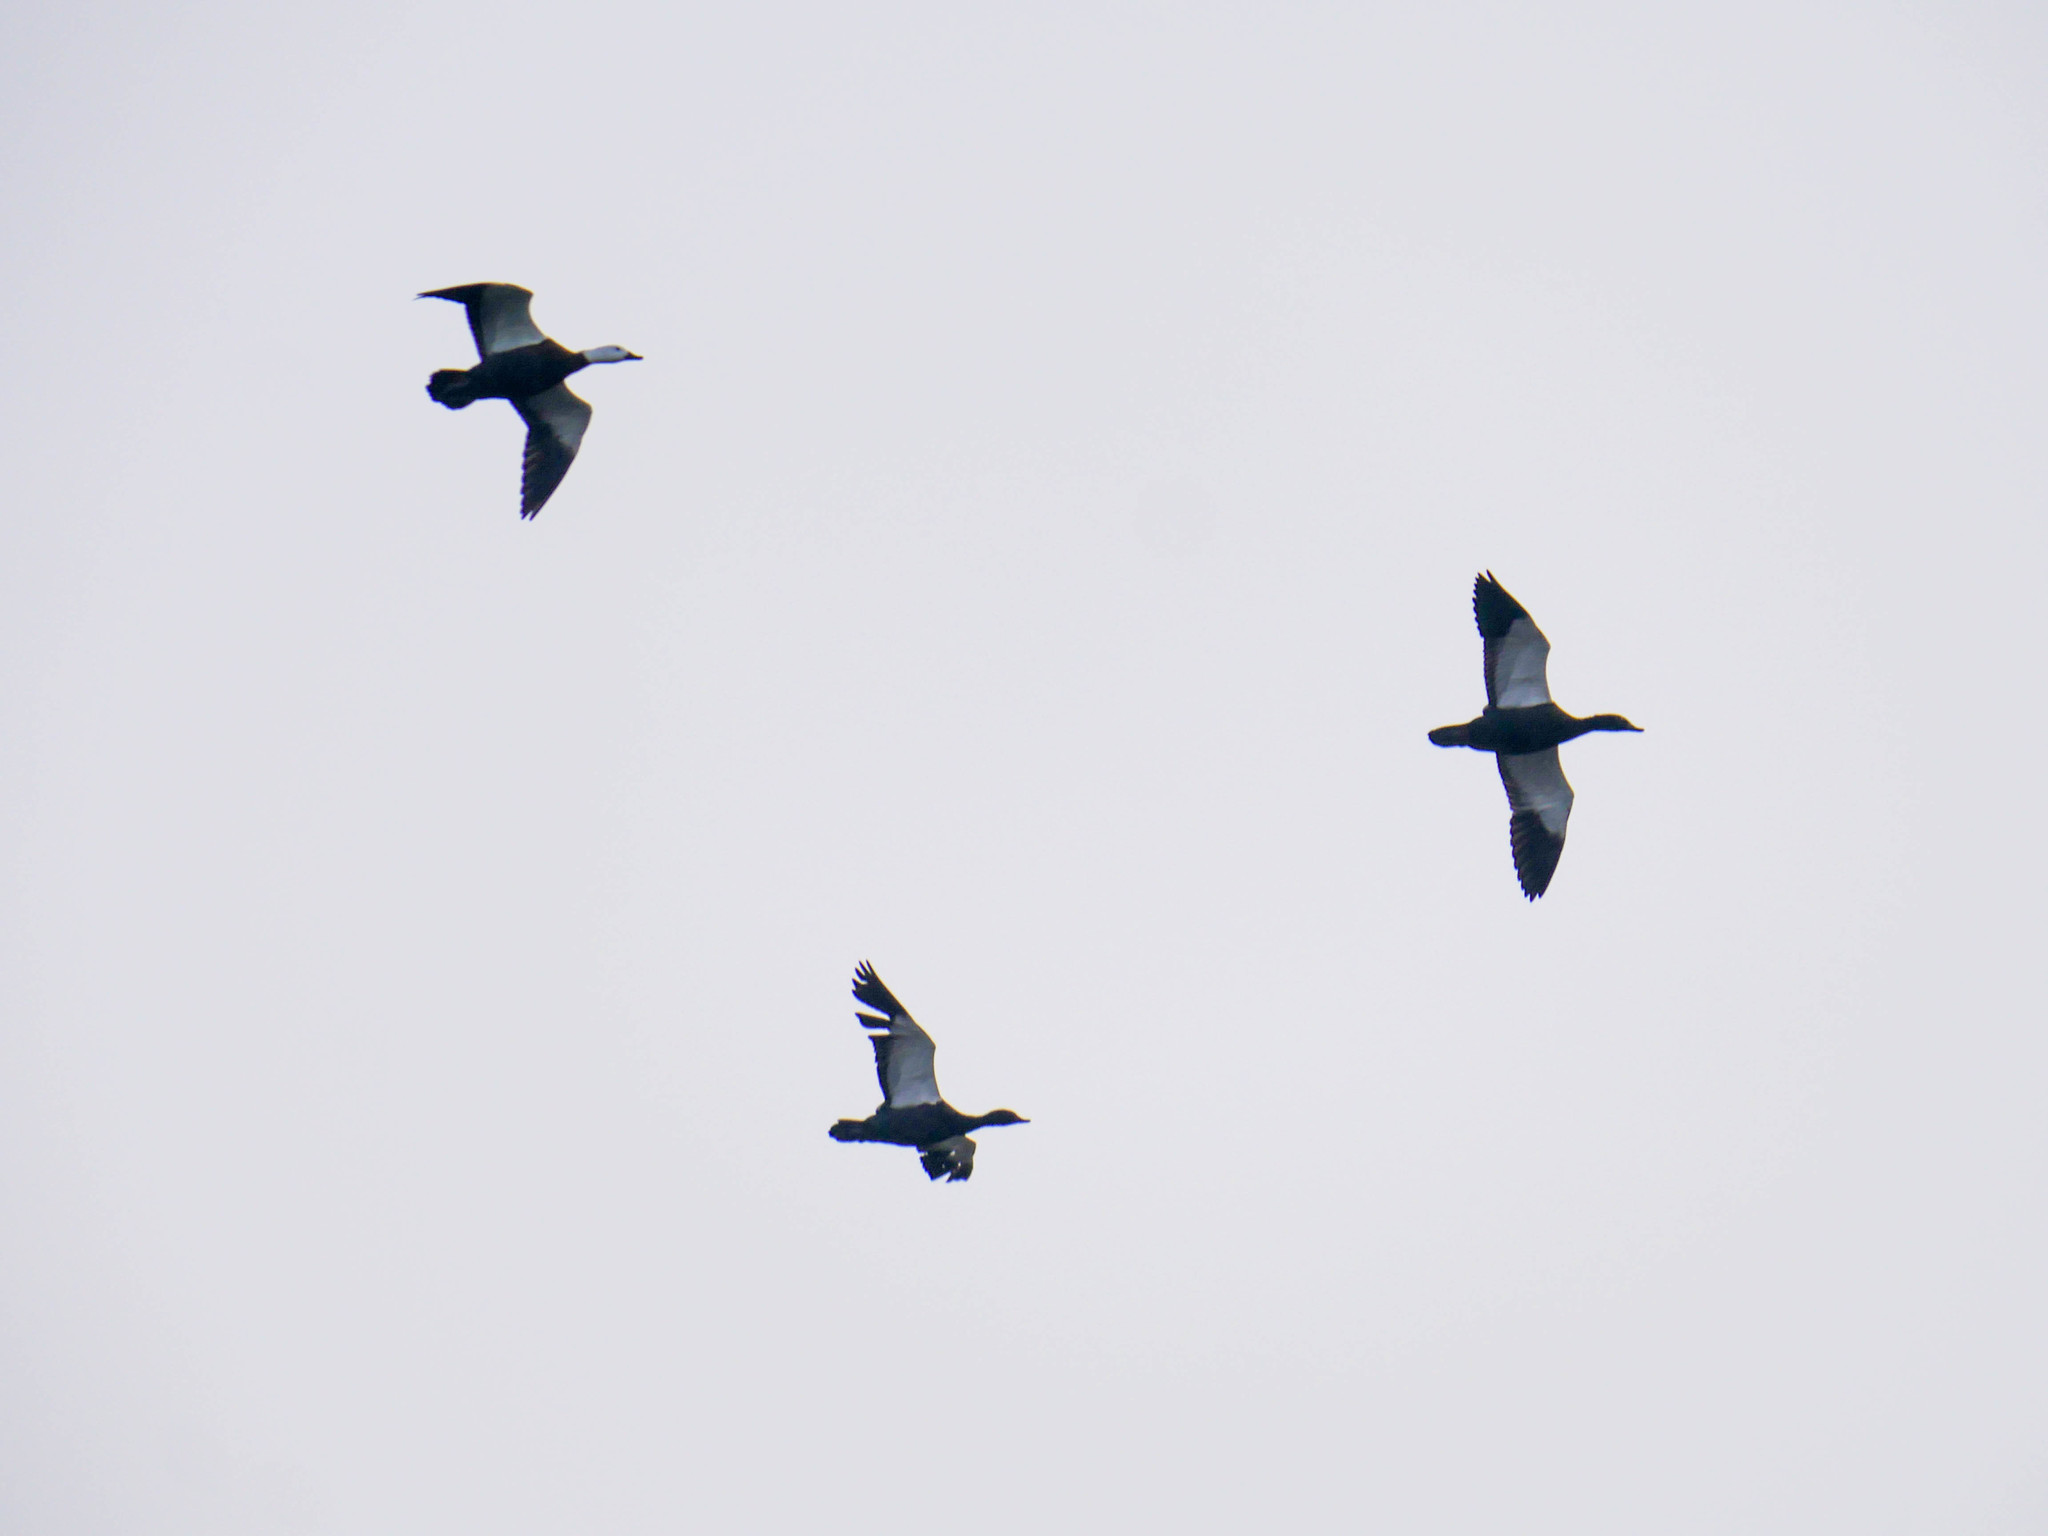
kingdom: Animalia
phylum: Chordata
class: Aves
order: Anseriformes
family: Anatidae
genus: Tadorna
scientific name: Tadorna variegata
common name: Paradise shelduck
